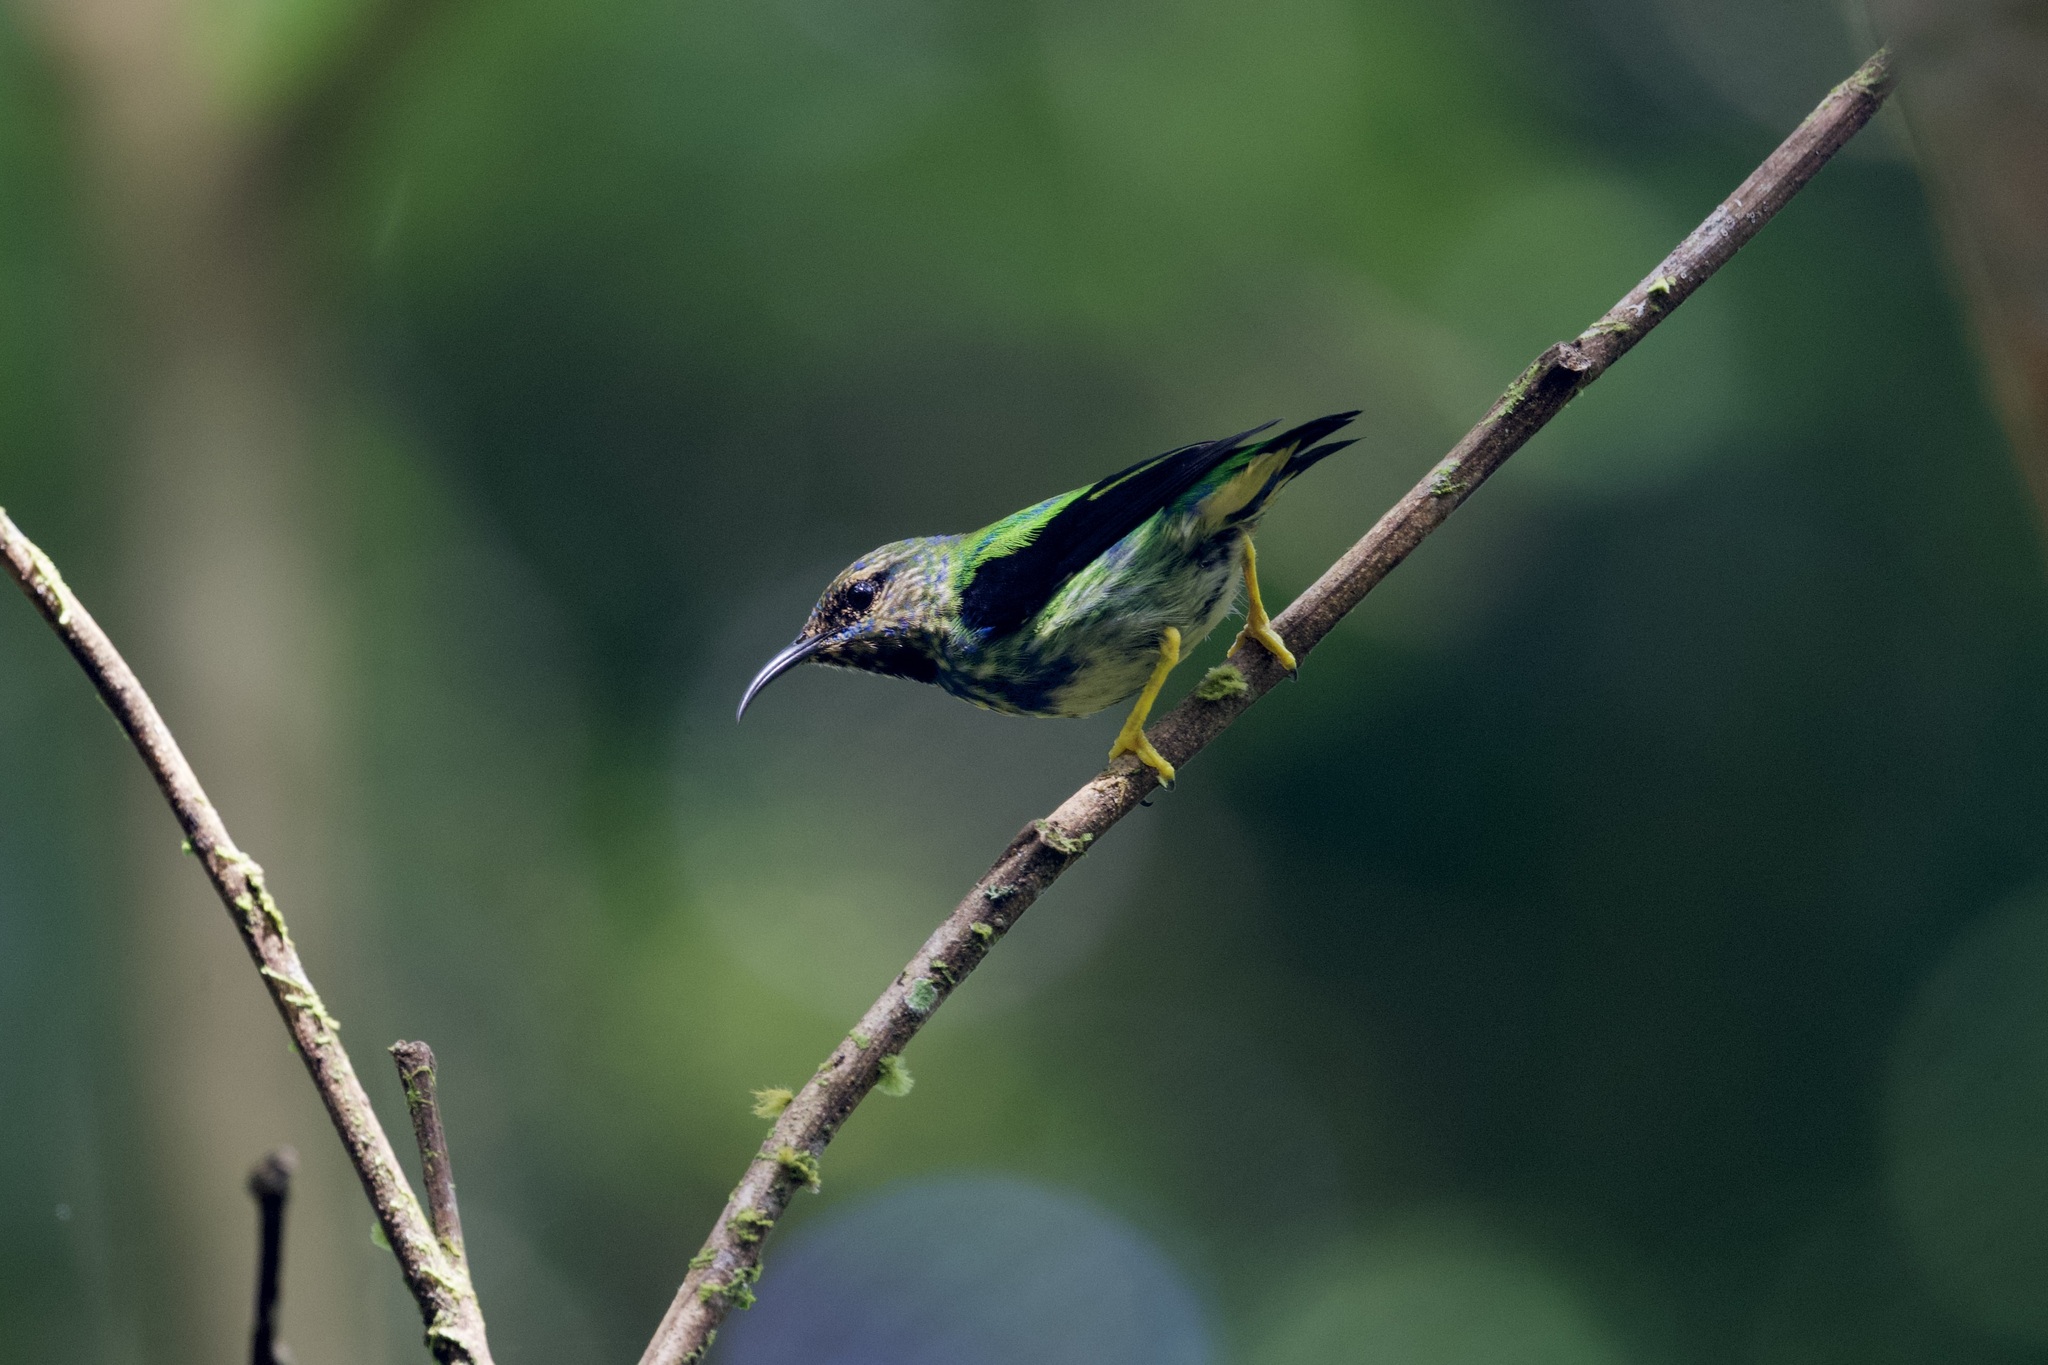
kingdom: Animalia
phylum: Chordata
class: Aves
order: Passeriformes
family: Thraupidae
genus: Cyanerpes
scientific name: Cyanerpes caeruleus
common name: Purple honeycreeper
